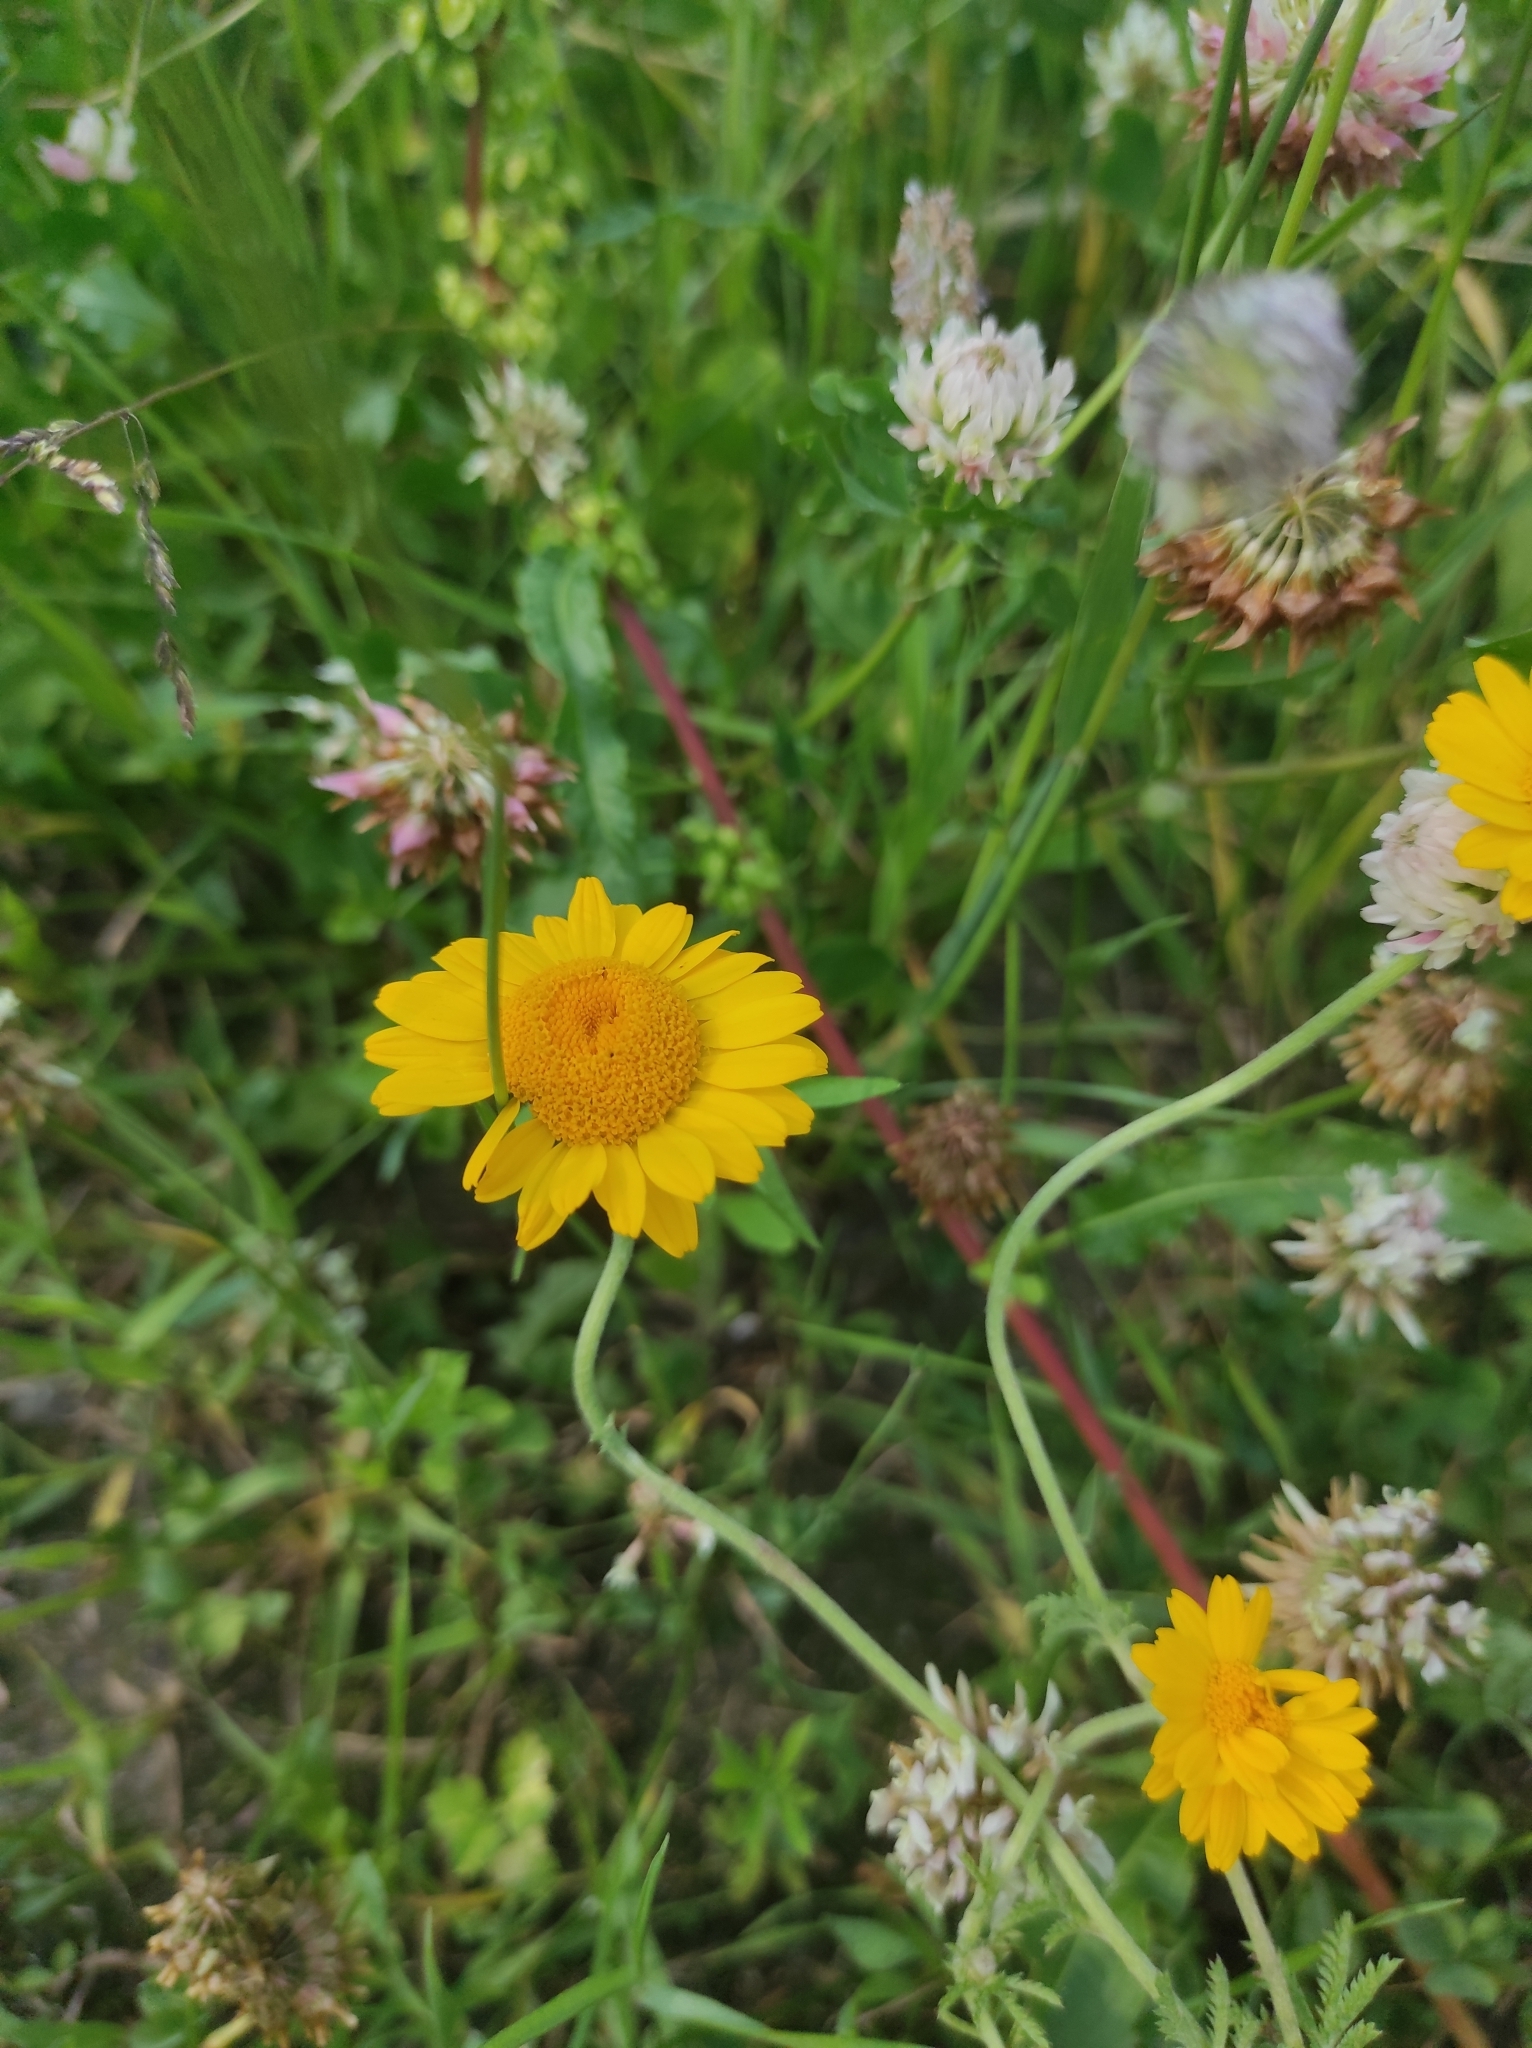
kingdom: Plantae
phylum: Tracheophyta
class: Magnoliopsida
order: Asterales
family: Asteraceae
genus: Cota
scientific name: Cota tinctoria
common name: Golden chamomile
